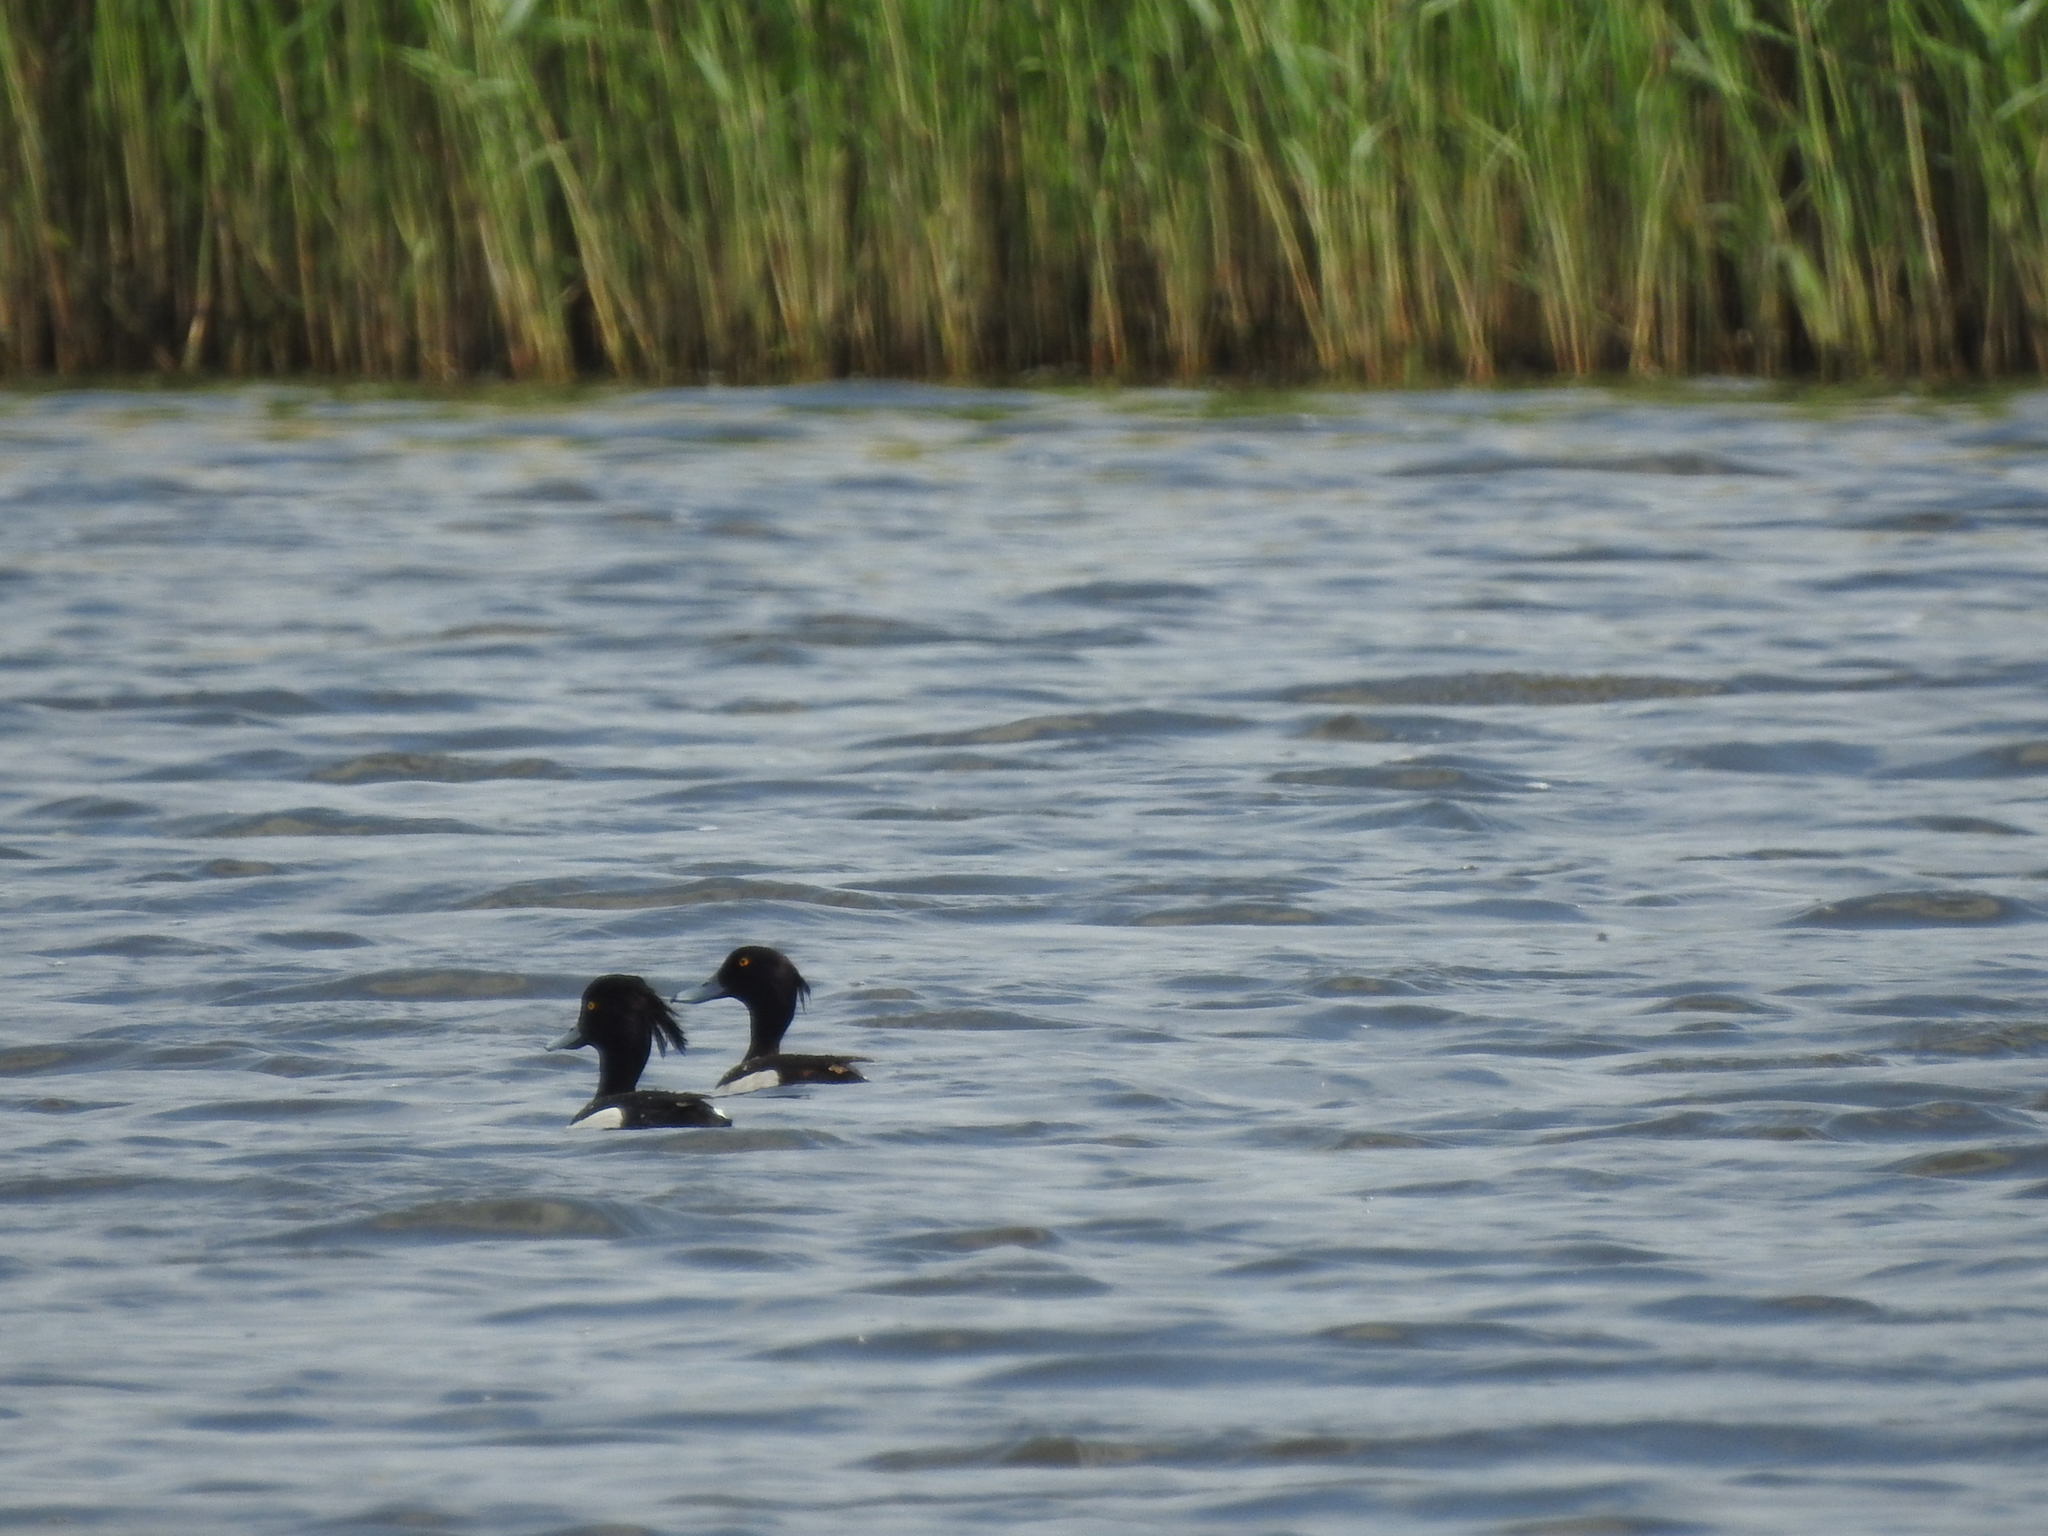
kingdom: Animalia
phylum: Chordata
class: Aves
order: Anseriformes
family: Anatidae
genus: Aythya
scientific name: Aythya fuligula
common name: Tufted duck
